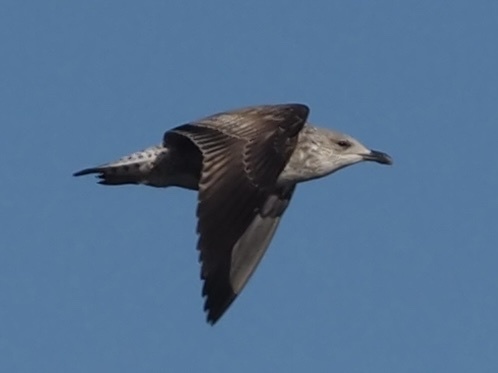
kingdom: Animalia
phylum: Chordata
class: Aves
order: Charadriiformes
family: Laridae
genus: Larus
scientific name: Larus fuscus
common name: Lesser black-backed gull
